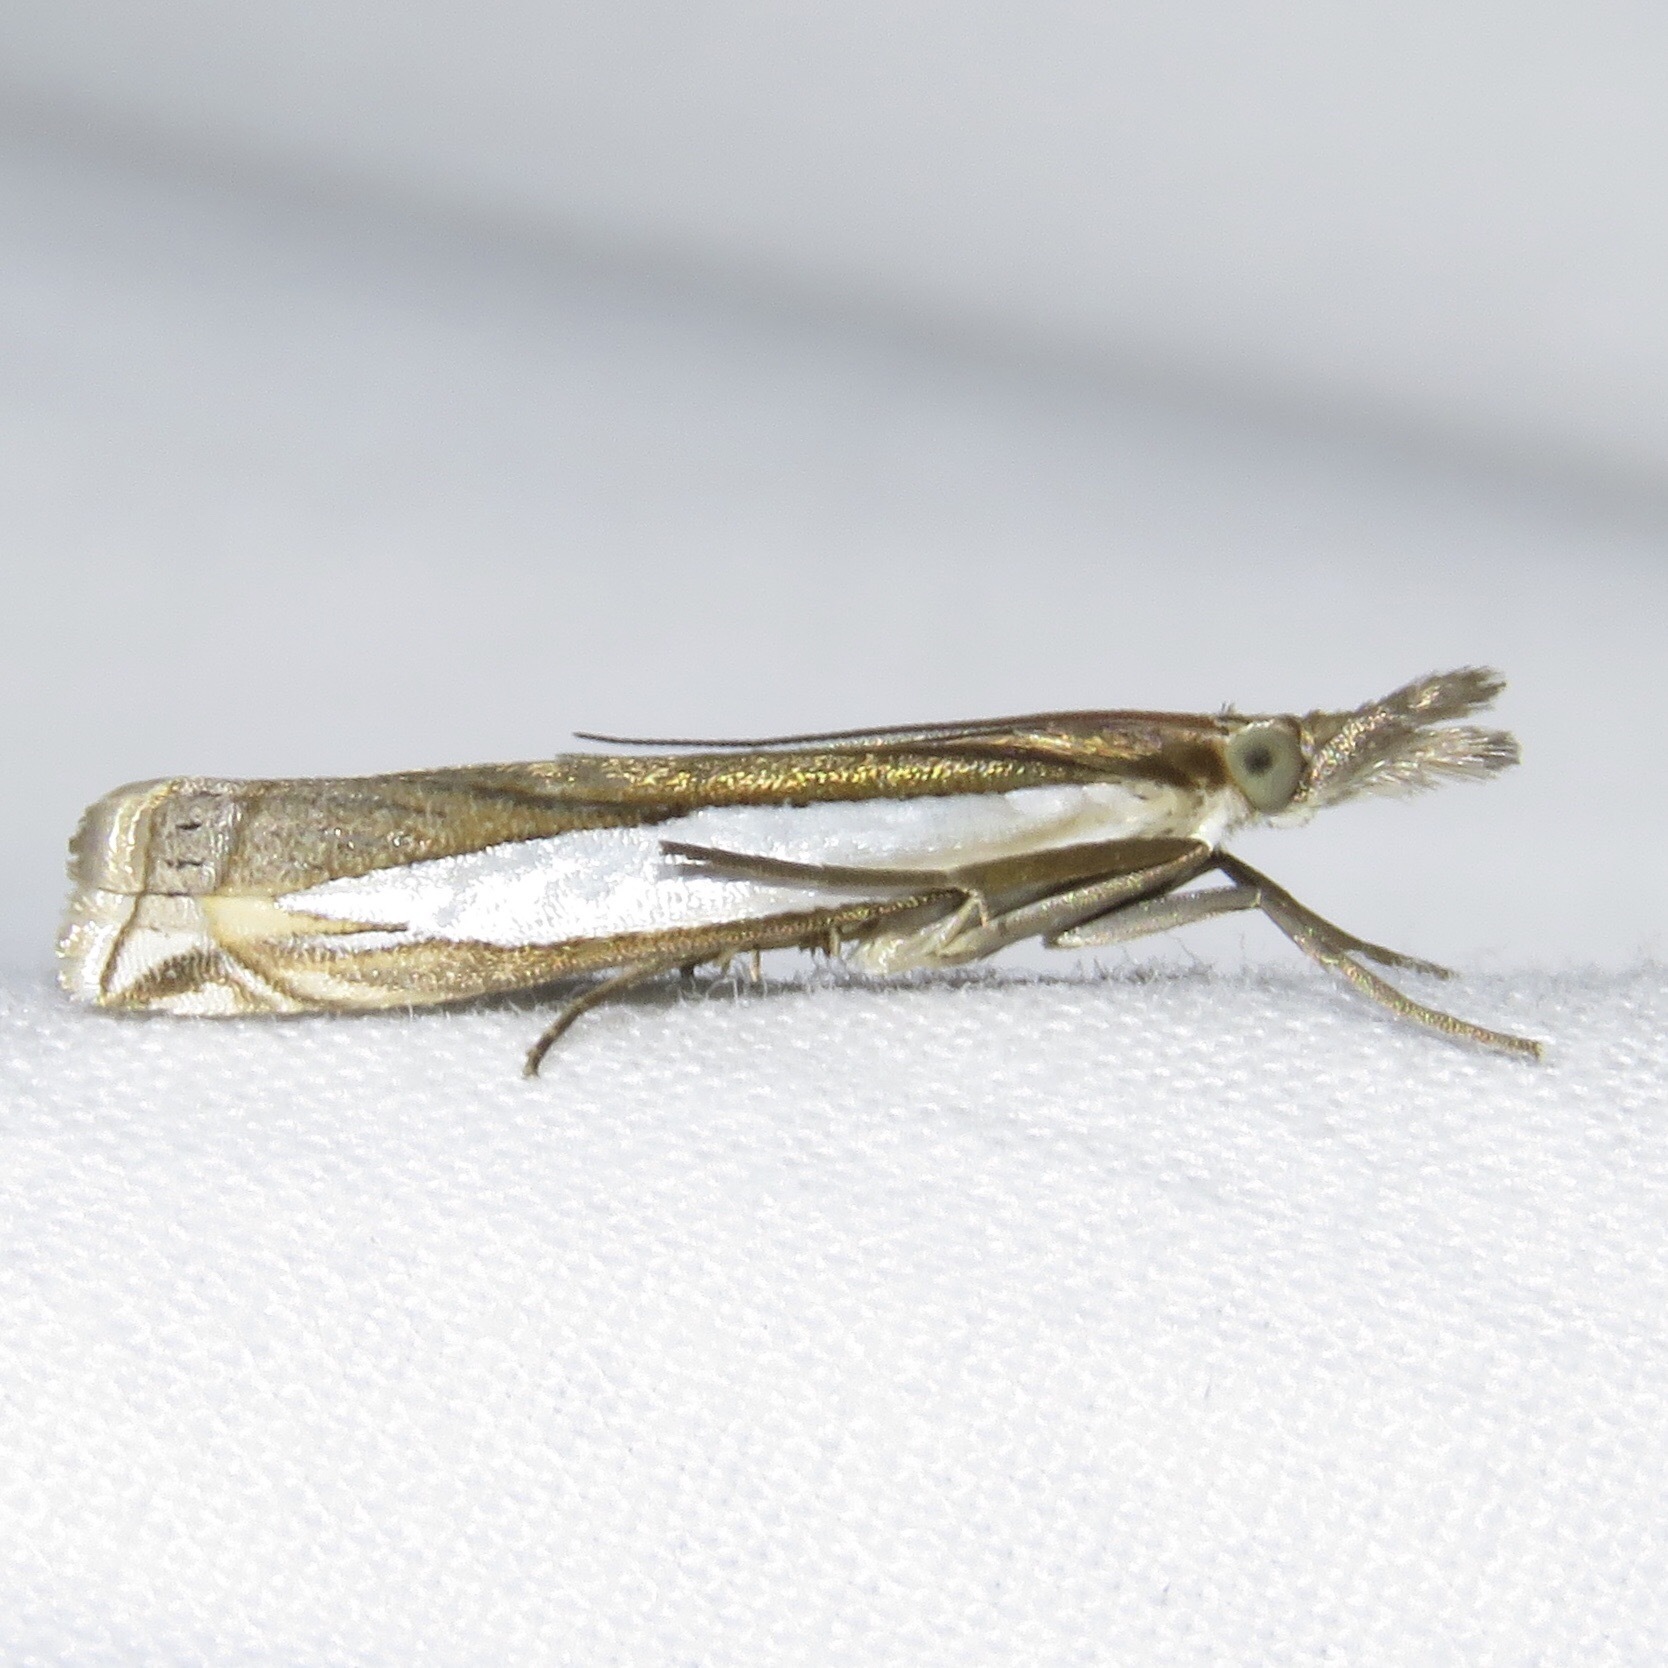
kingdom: Animalia
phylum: Arthropoda
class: Insecta
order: Lepidoptera
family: Crambidae
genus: Crambus
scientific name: Crambus leachellus
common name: Leach's grass-veneer
